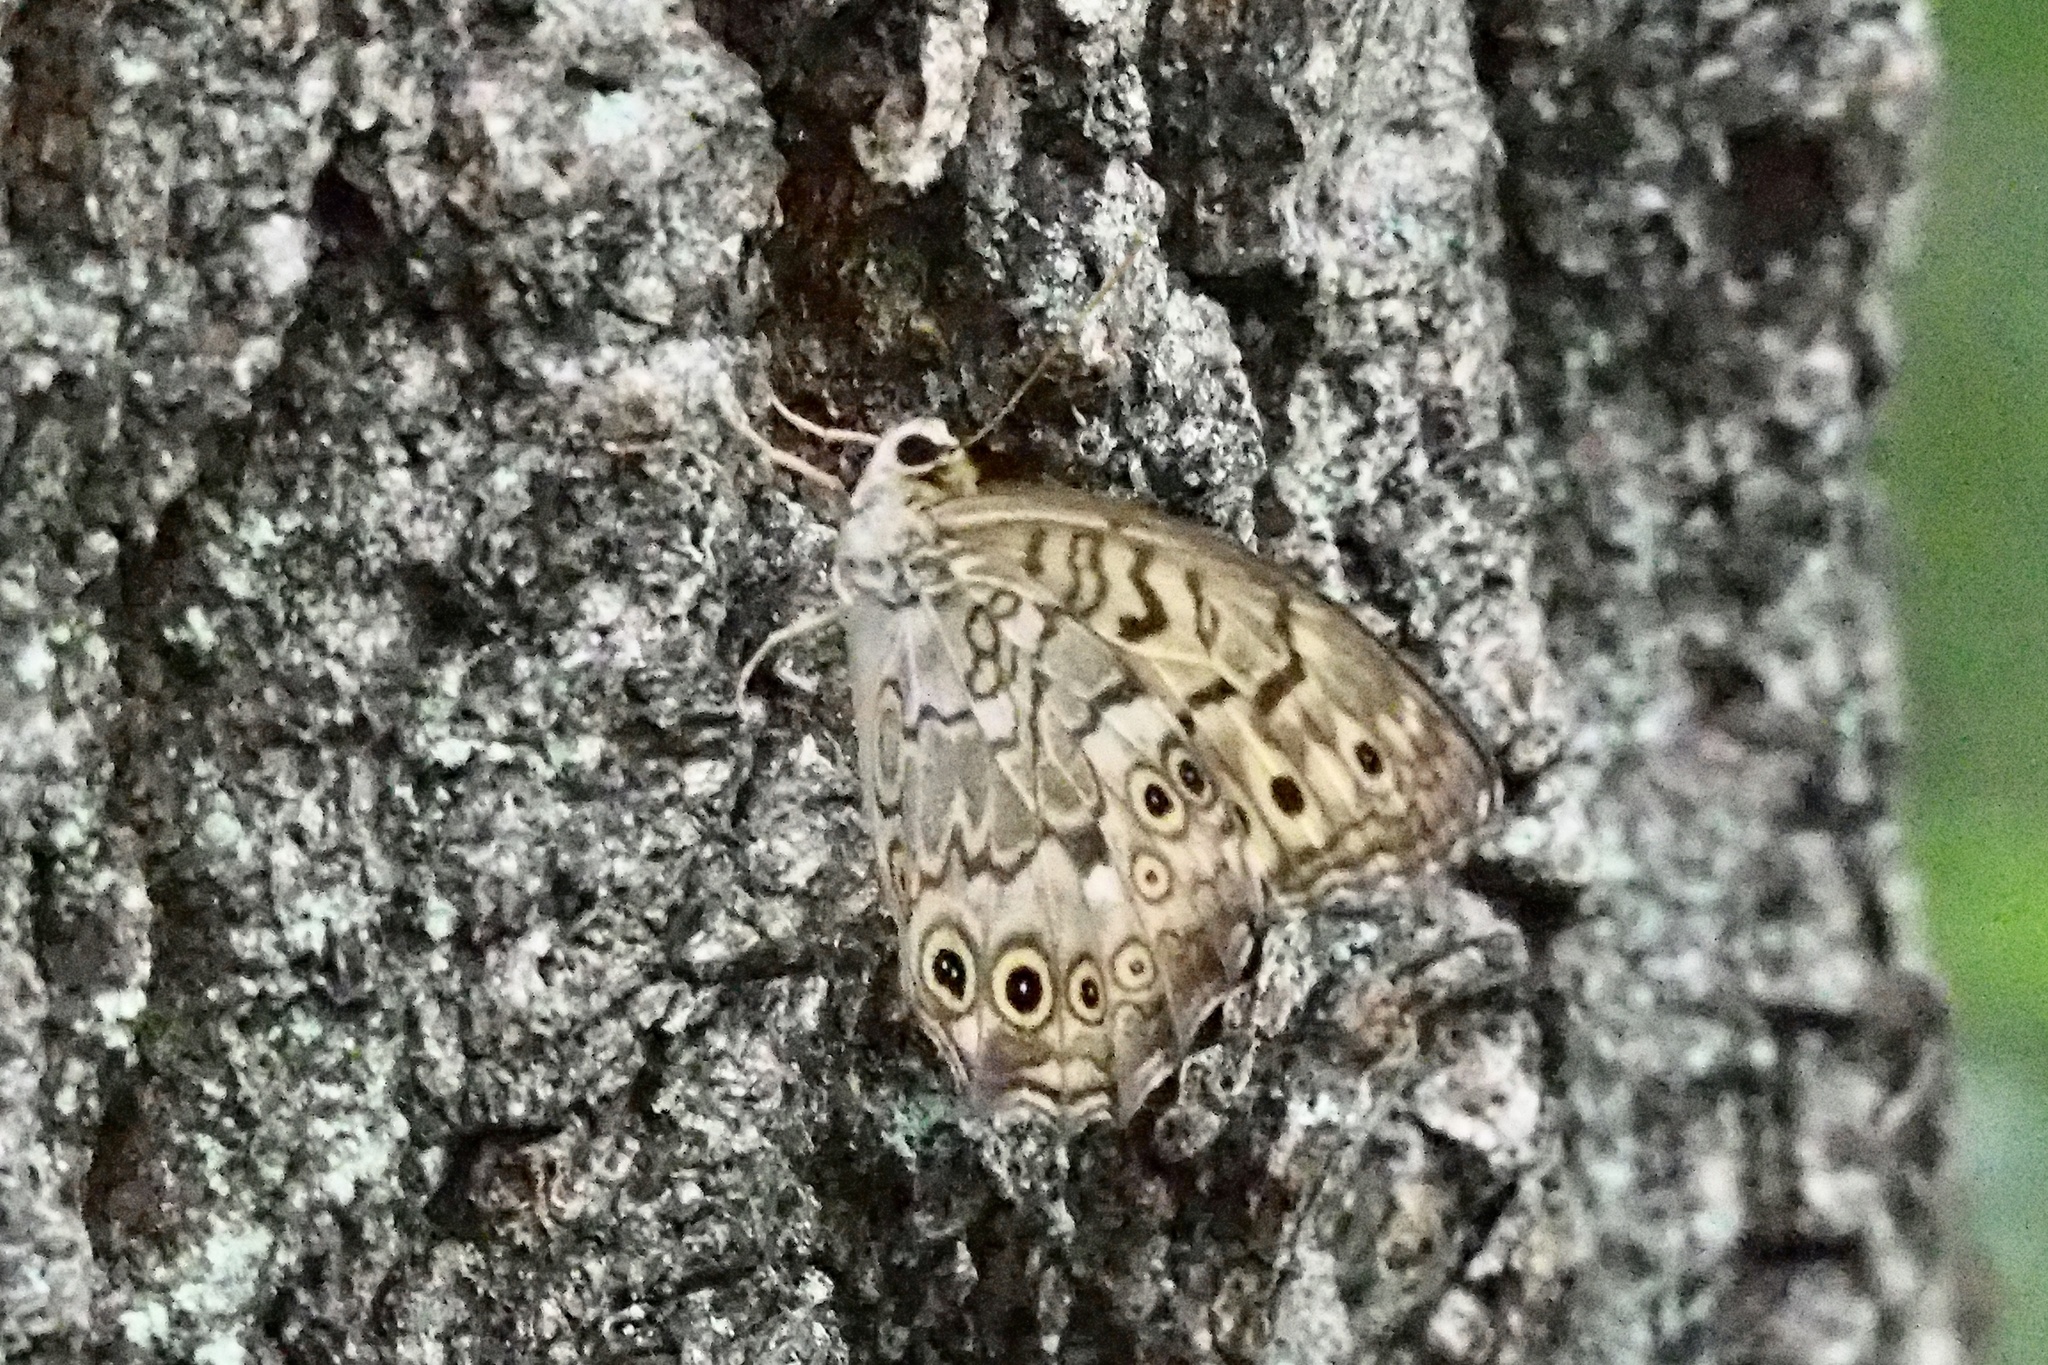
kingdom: Animalia
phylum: Arthropoda
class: Insecta
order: Lepidoptera
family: Nymphalidae
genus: Neope
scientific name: Neope goschkevitschii
